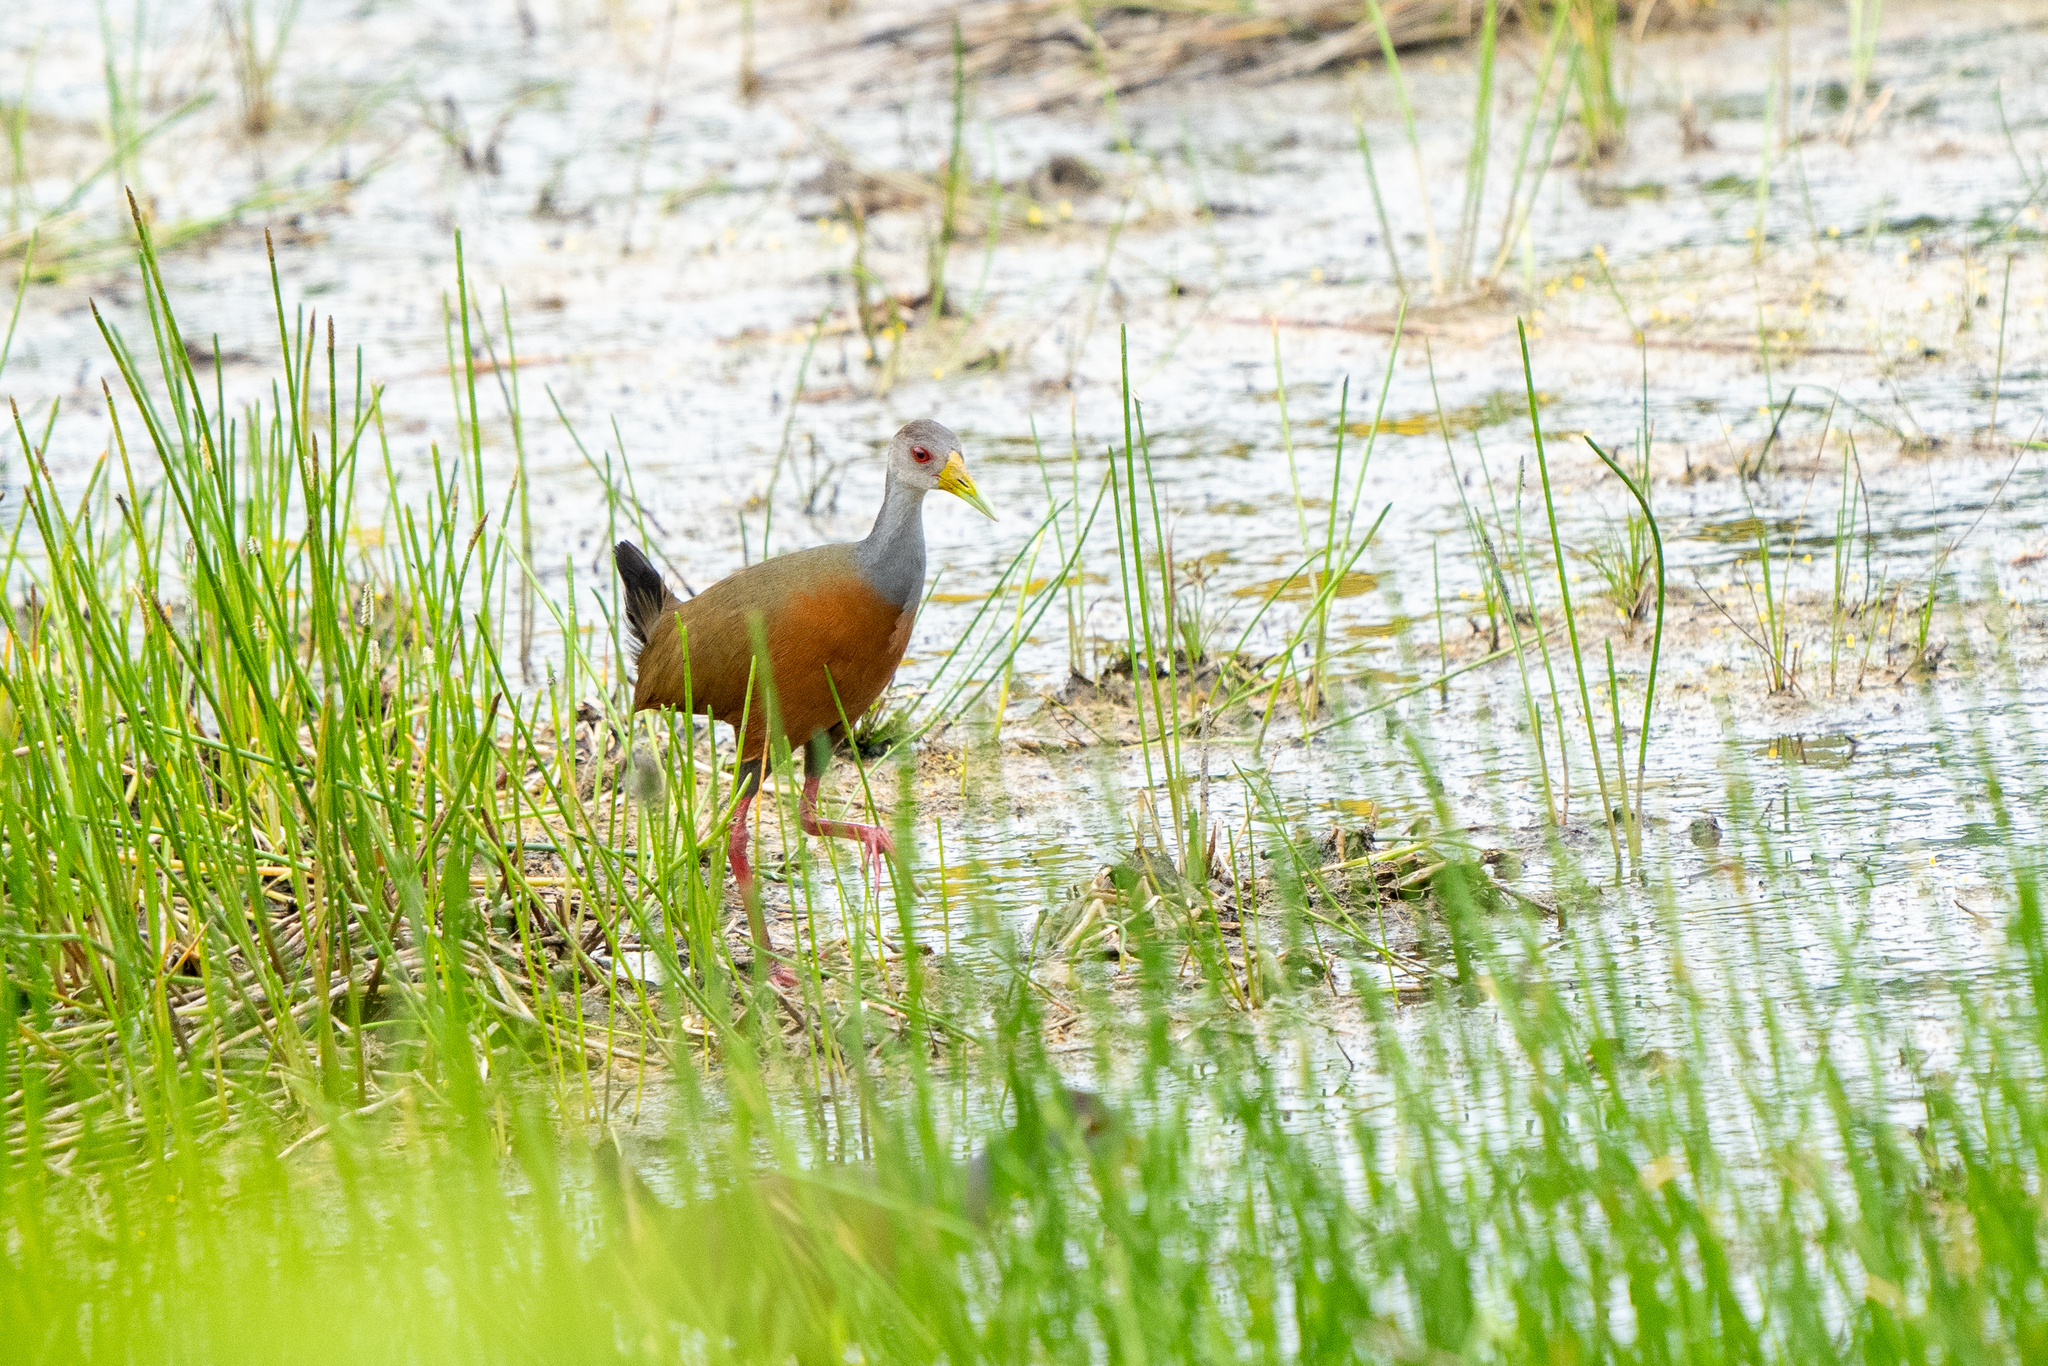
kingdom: Animalia
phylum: Chordata
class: Aves
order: Gruiformes
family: Rallidae
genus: Aramides
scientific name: Aramides cajanea
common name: Gray-necked wood-rail
